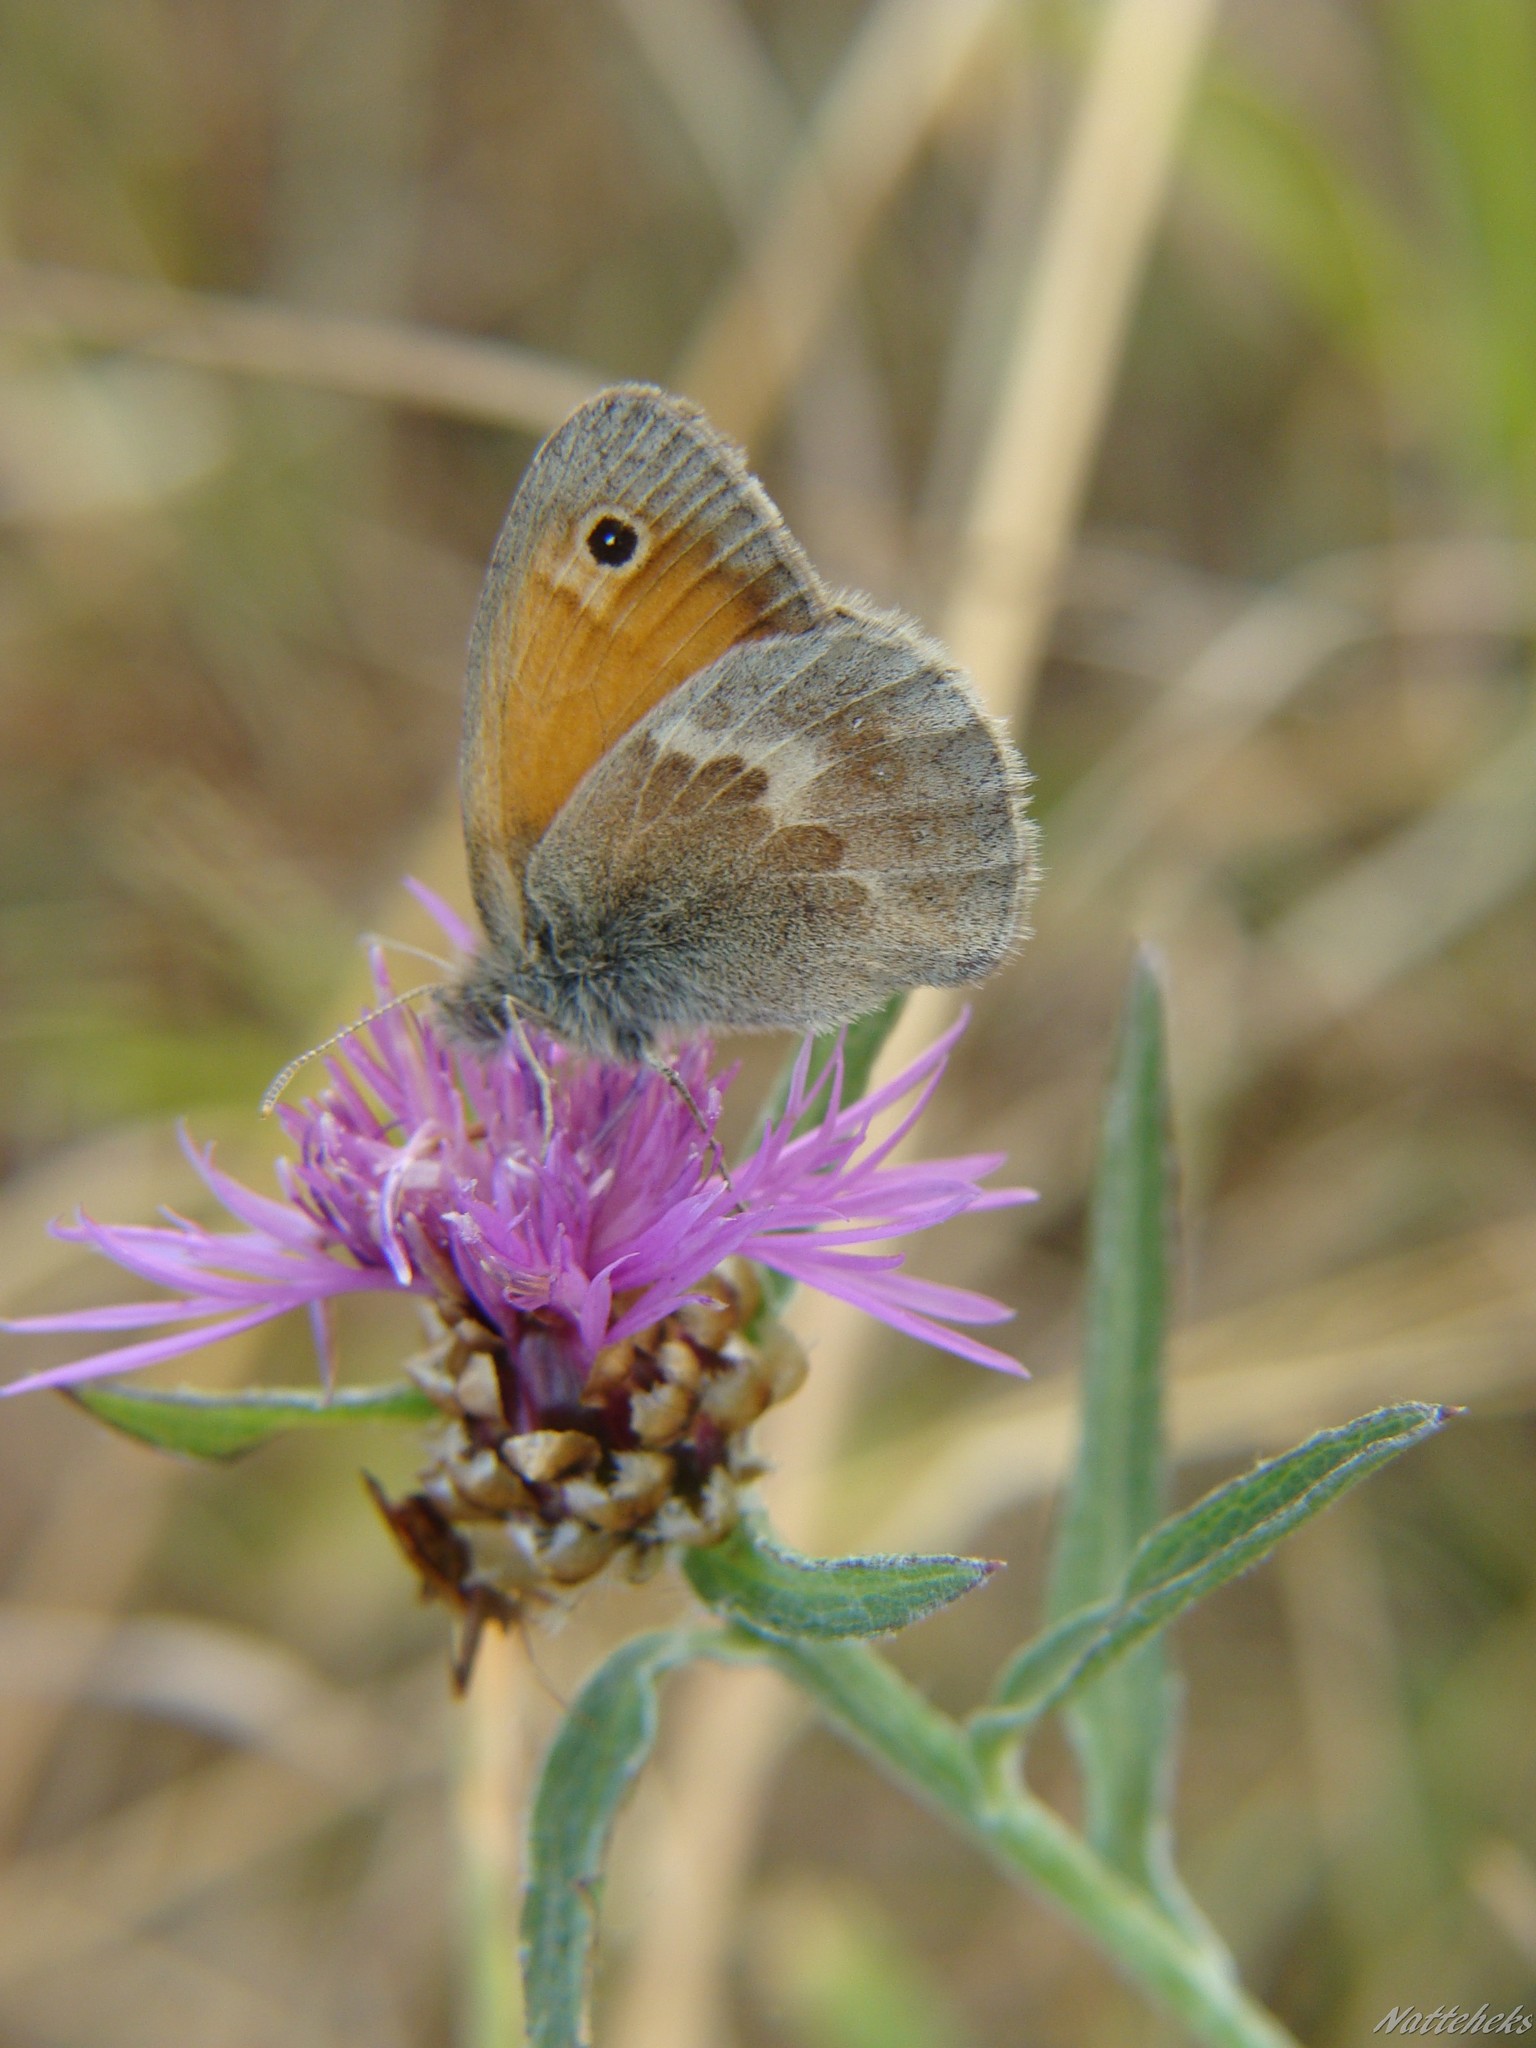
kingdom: Animalia
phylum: Arthropoda
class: Insecta
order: Lepidoptera
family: Nymphalidae
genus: Coenonympha
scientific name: Coenonympha pamphilus
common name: Small heath
